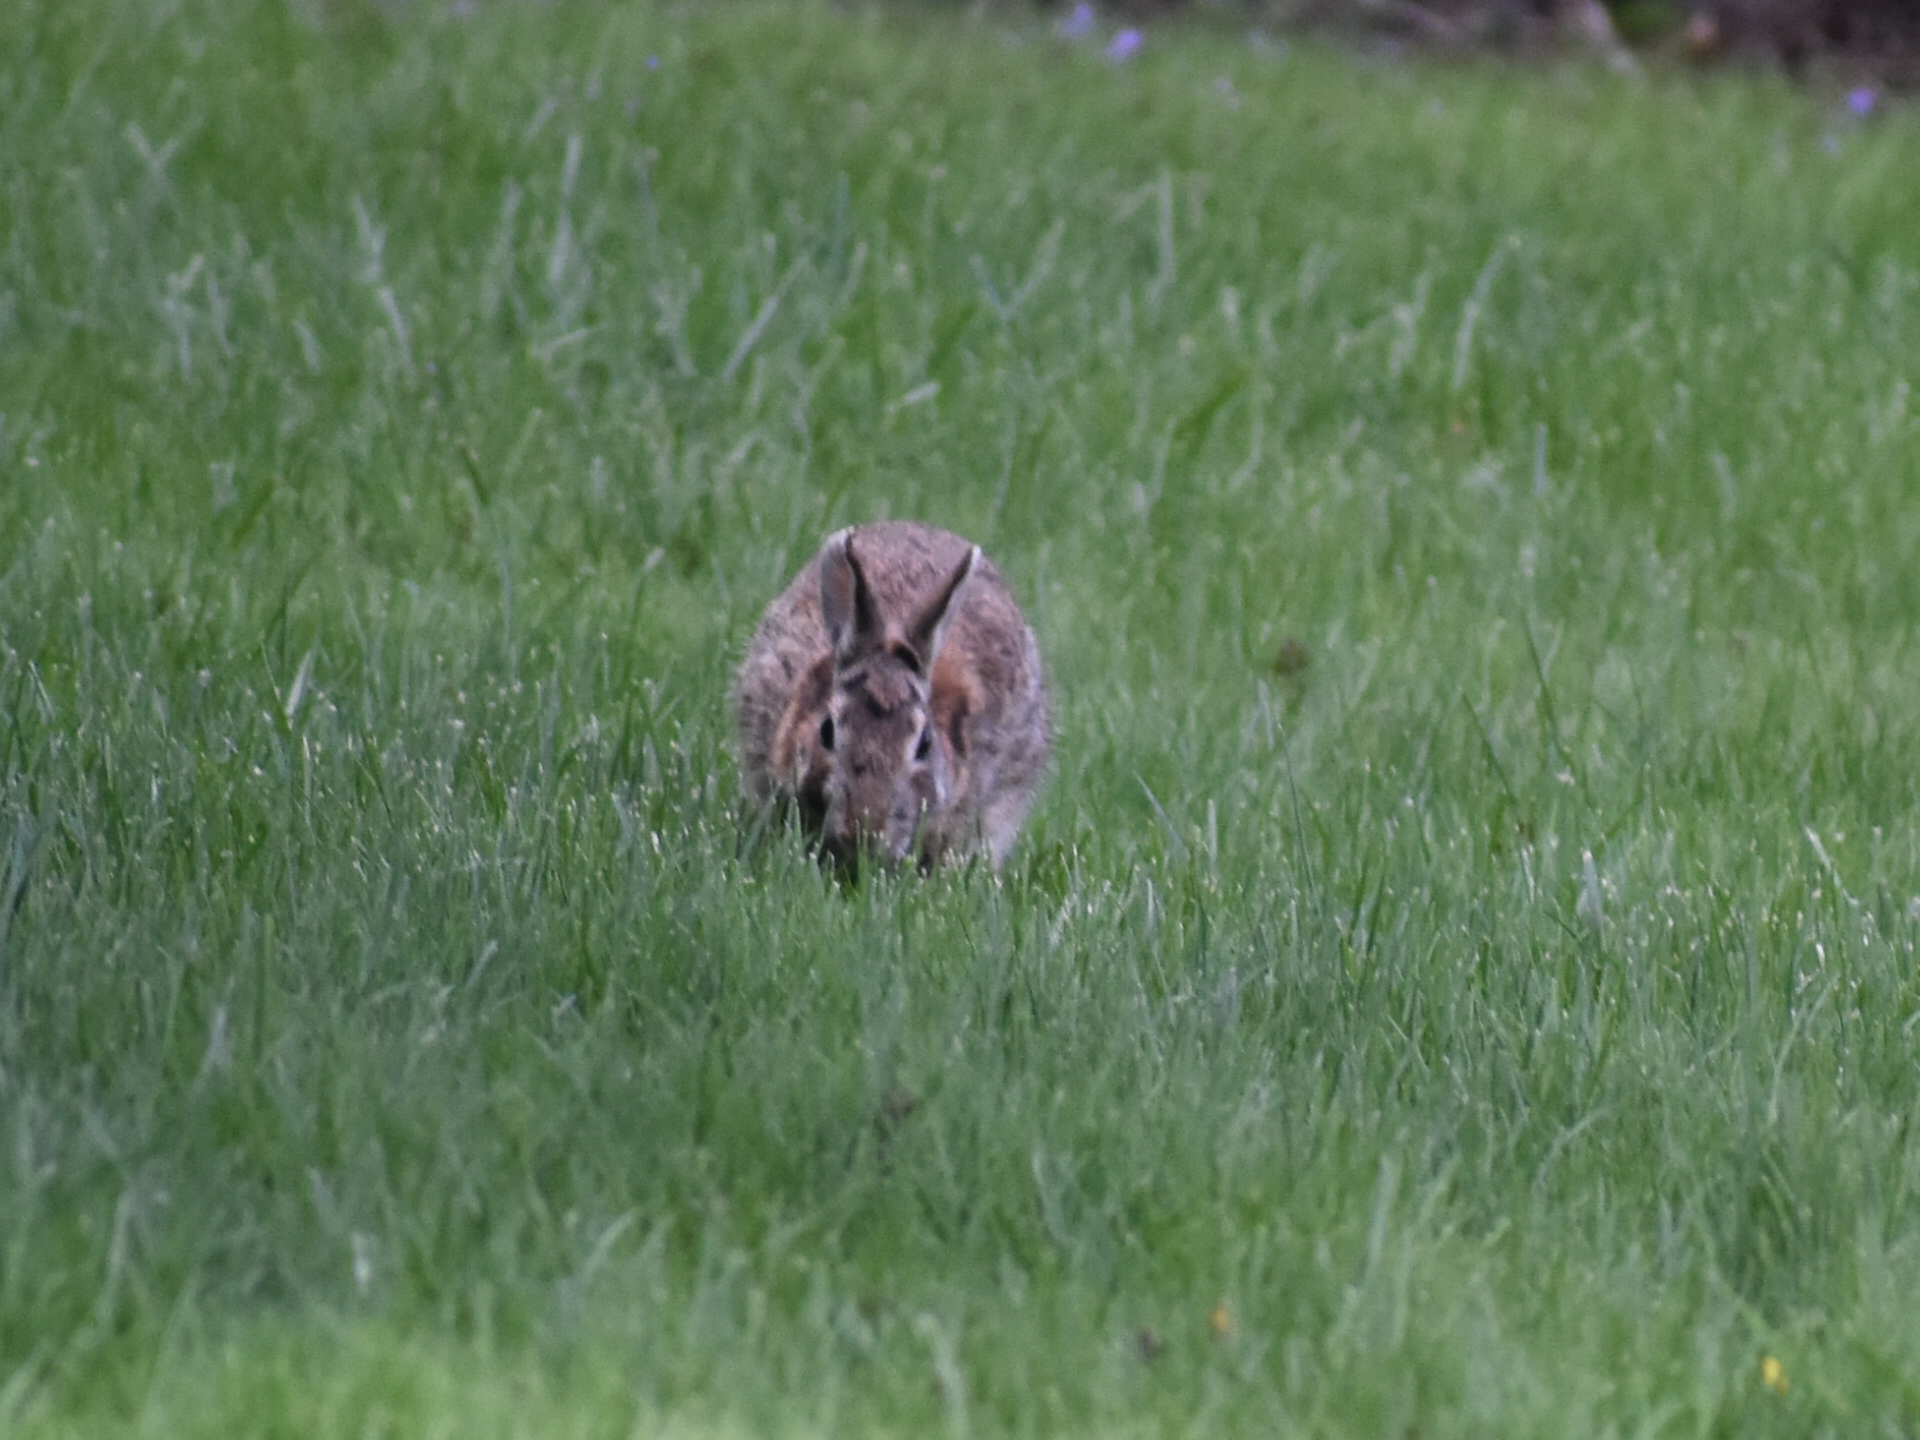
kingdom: Animalia
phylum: Chordata
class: Mammalia
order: Lagomorpha
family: Leporidae
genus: Sylvilagus
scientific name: Sylvilagus floridanus
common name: Eastern cottontail
